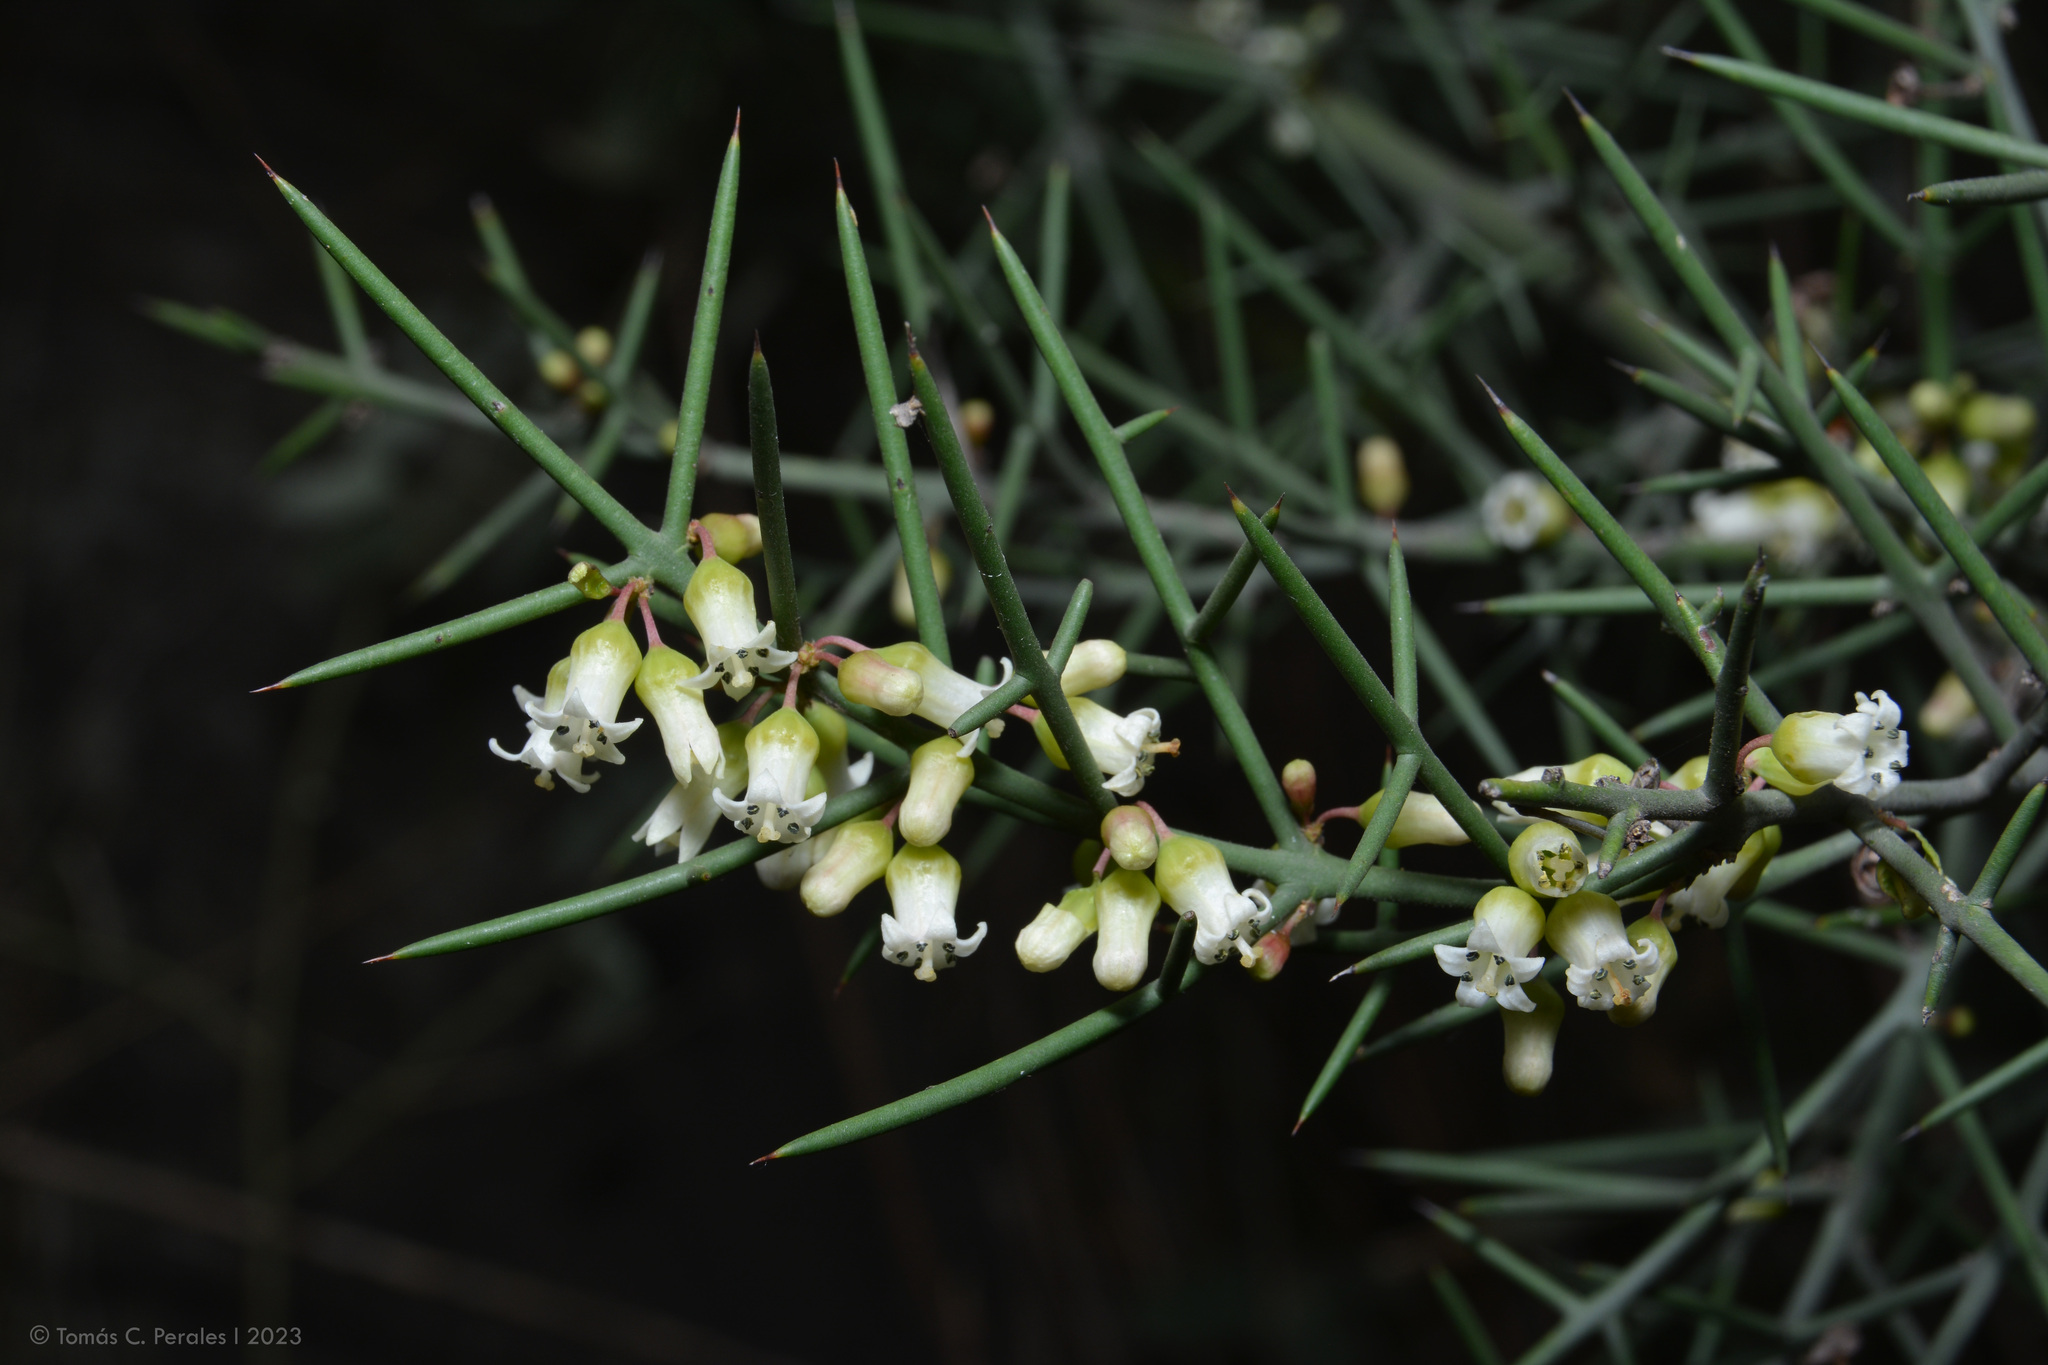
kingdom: Plantae
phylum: Tracheophyta
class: Magnoliopsida
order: Rosales
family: Rhamnaceae
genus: Colletia
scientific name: Colletia spinosissima
